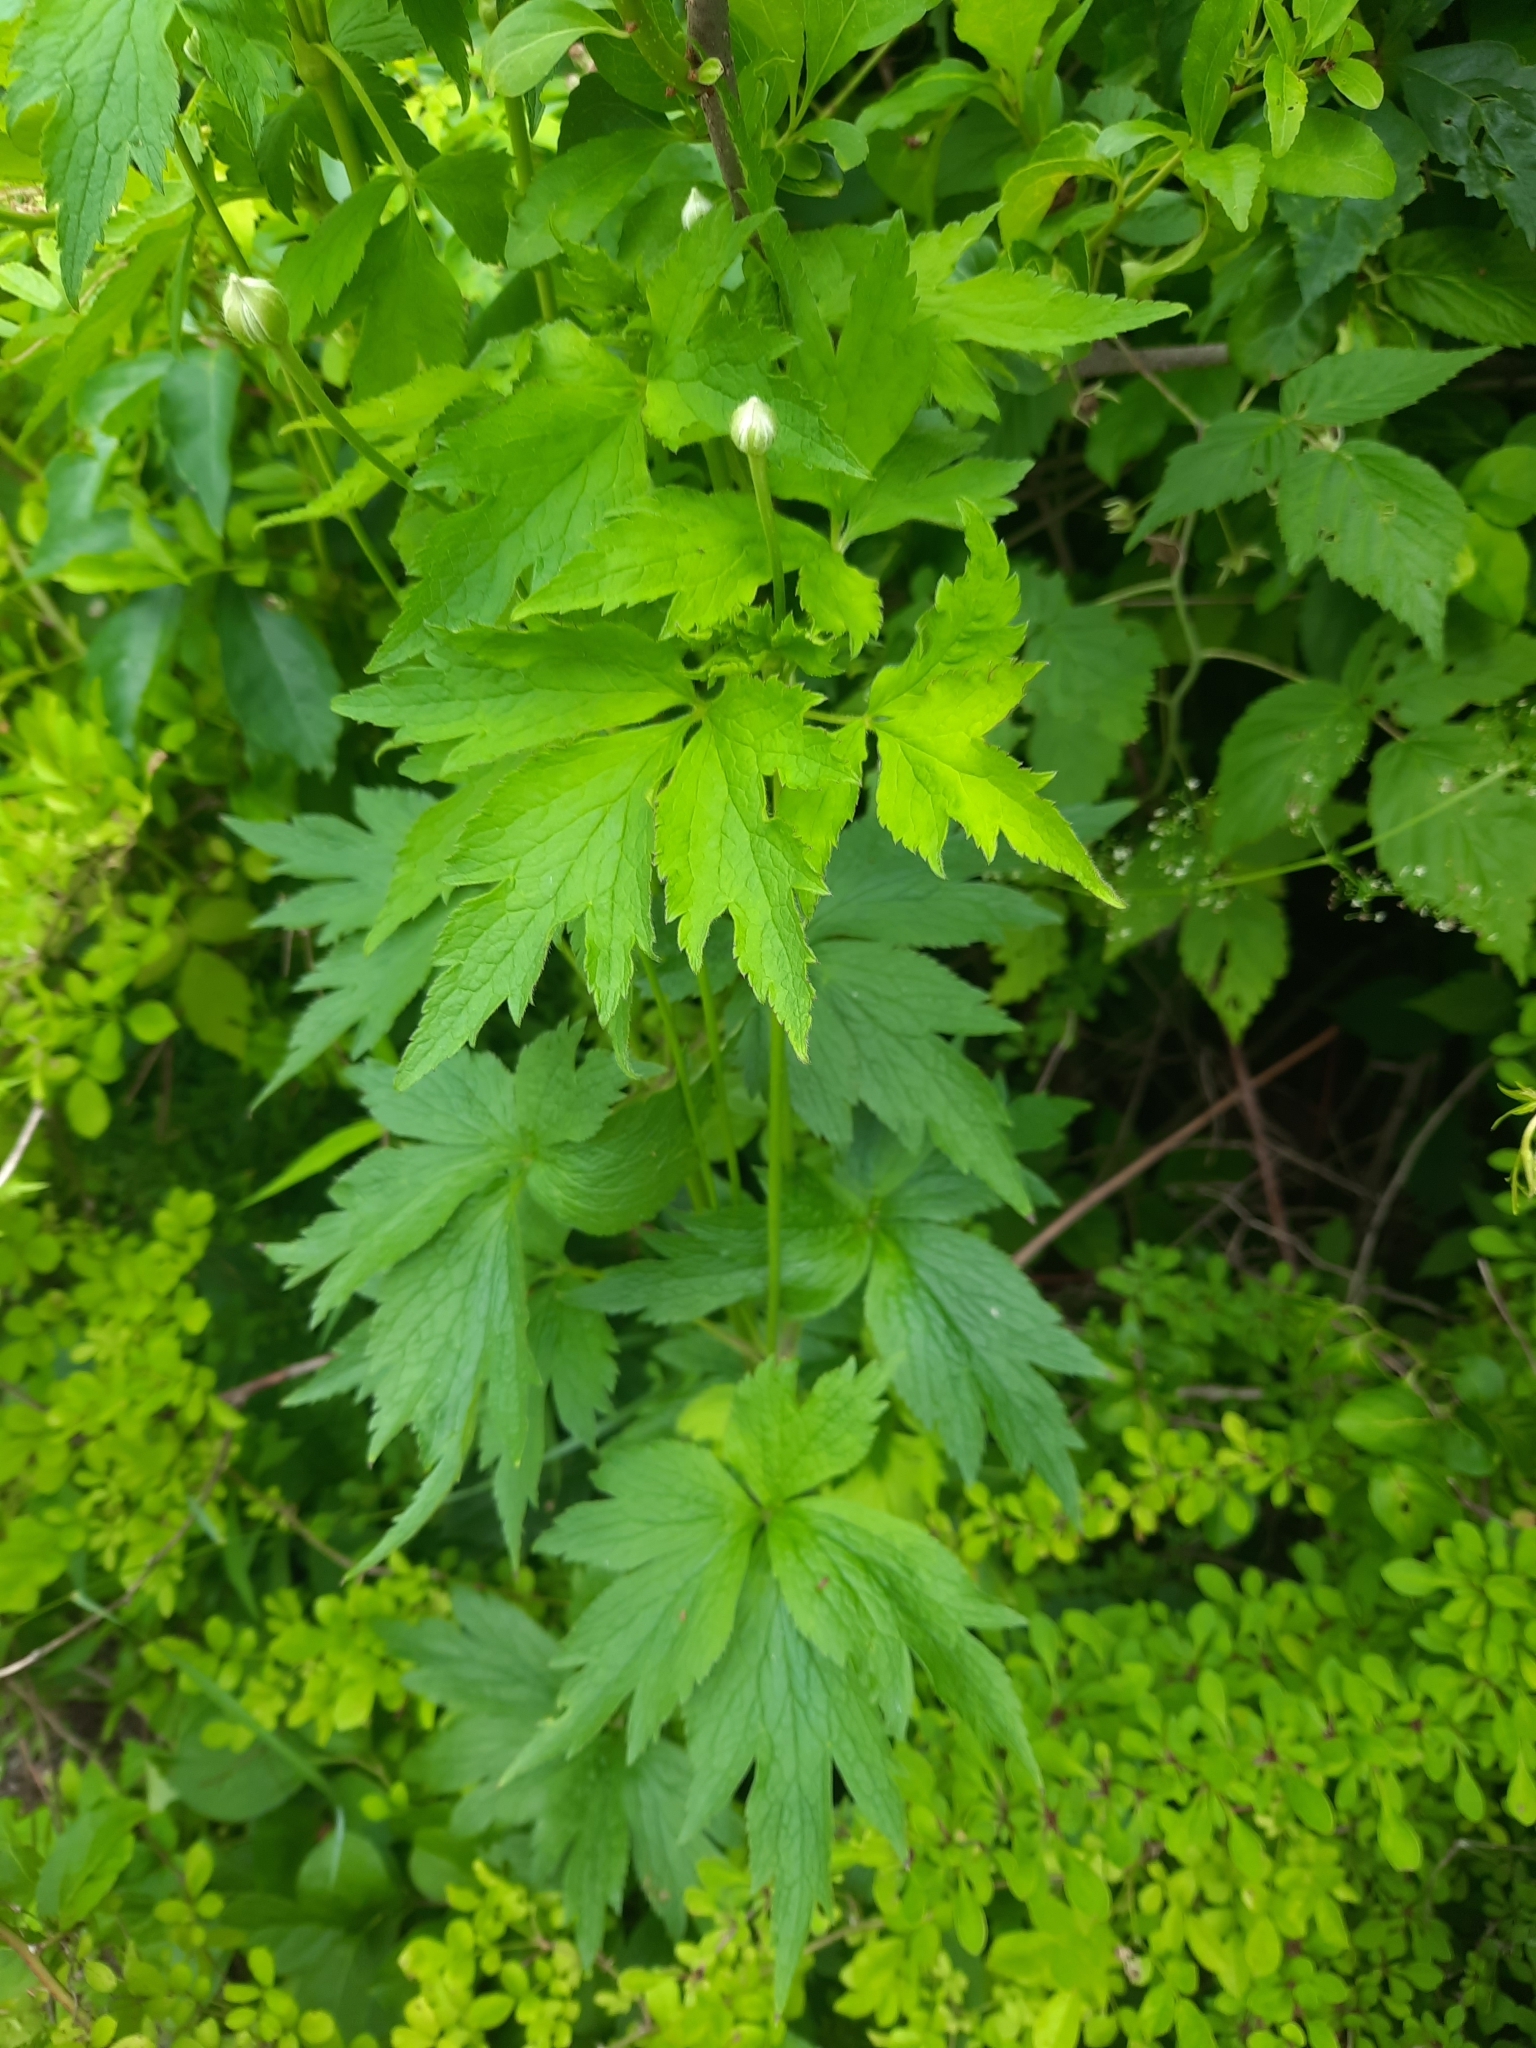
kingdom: Plantae
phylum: Tracheophyta
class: Magnoliopsida
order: Ranunculales
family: Ranunculaceae
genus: Anemone
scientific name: Anemone virginiana
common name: Tall anemone
